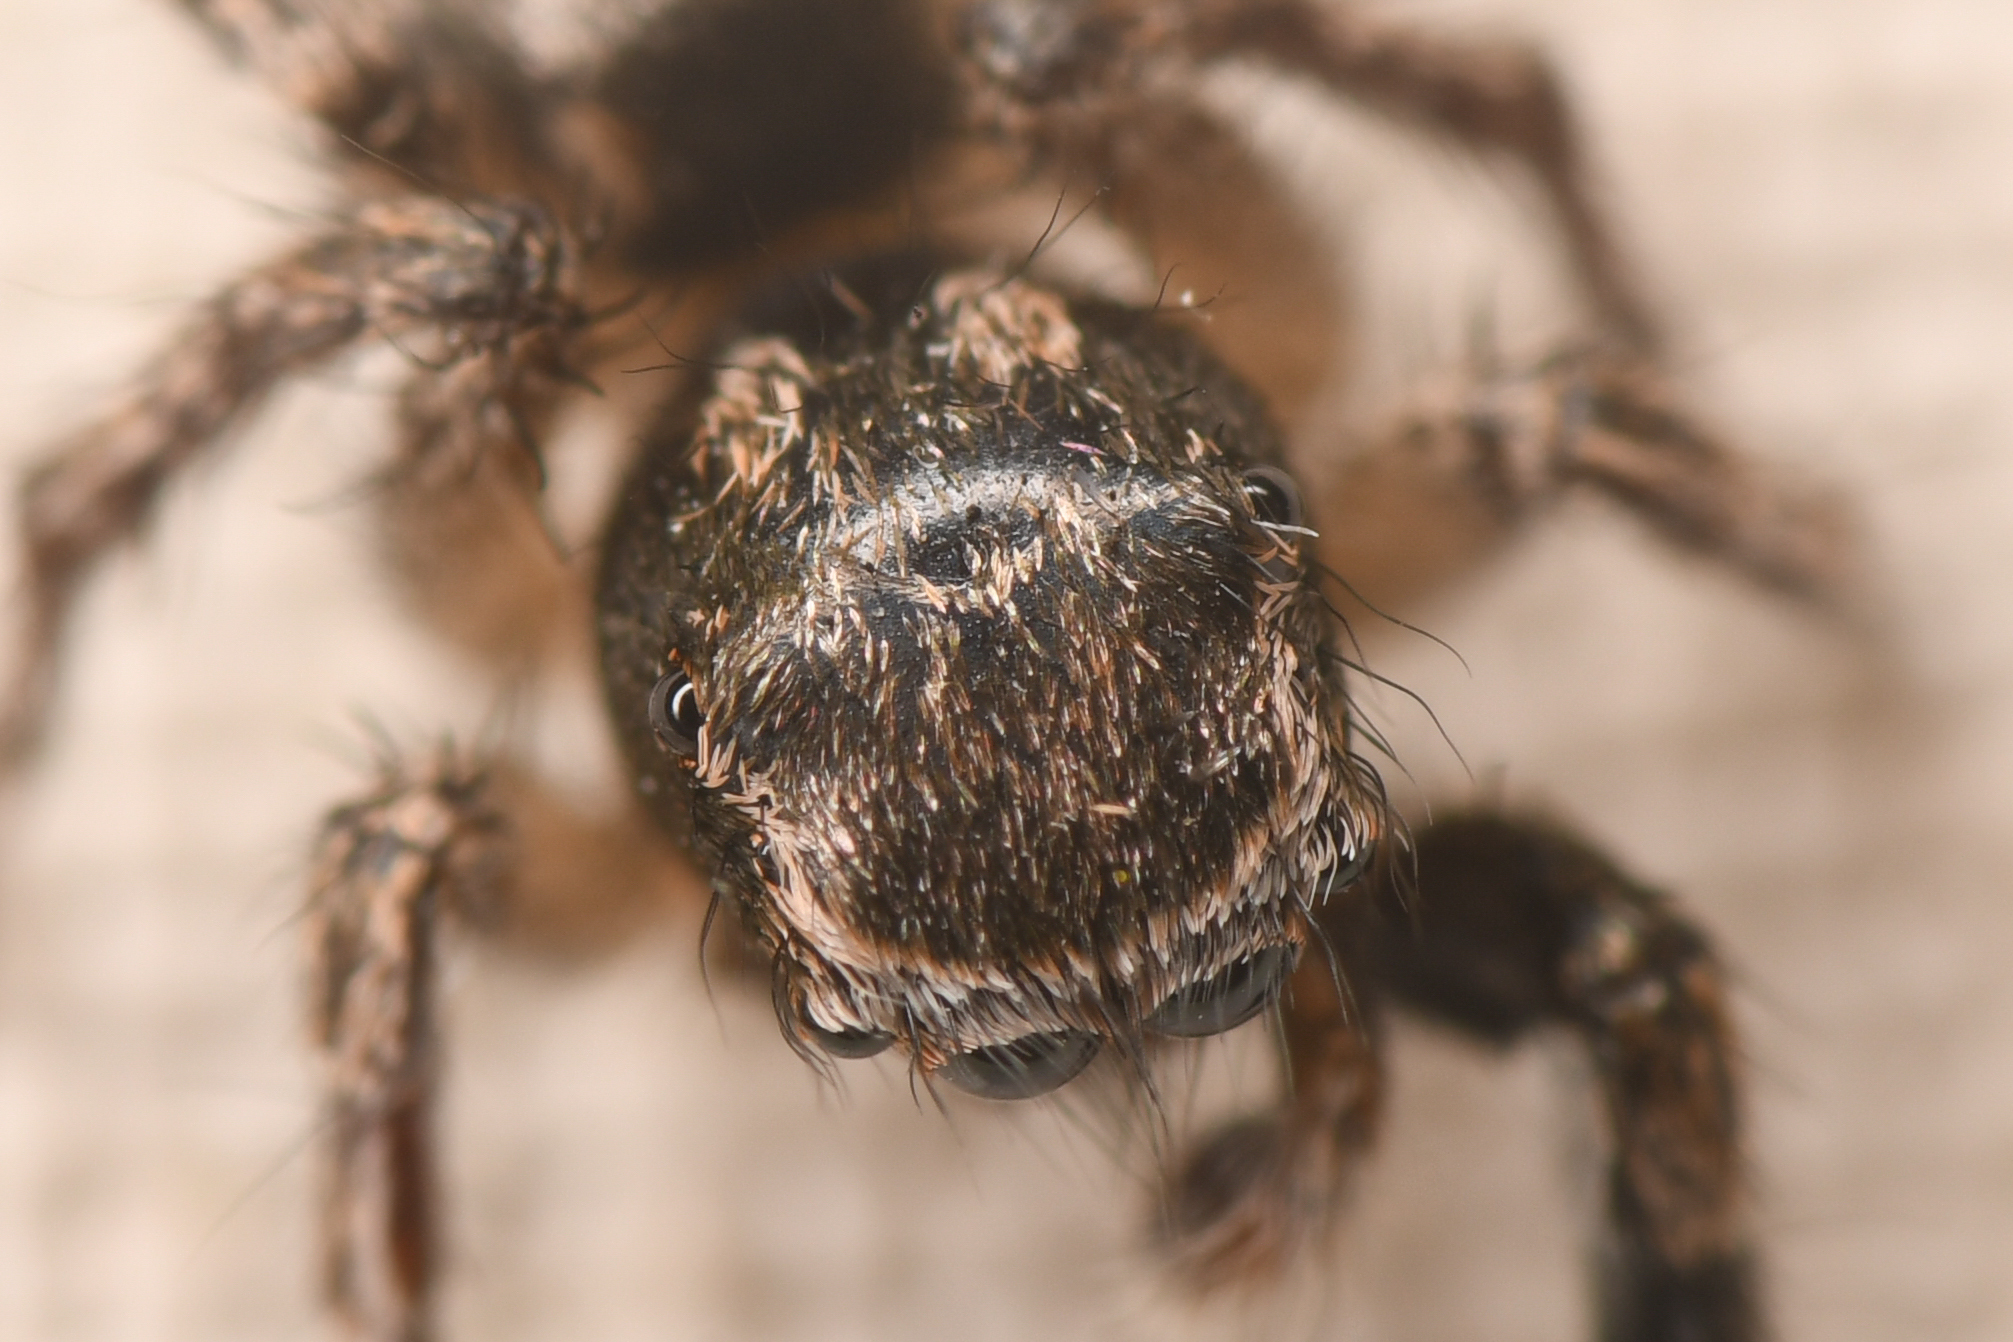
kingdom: Animalia
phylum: Arthropoda
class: Arachnida
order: Araneae
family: Salticidae
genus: Habronattus
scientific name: Habronattus hirsutus
